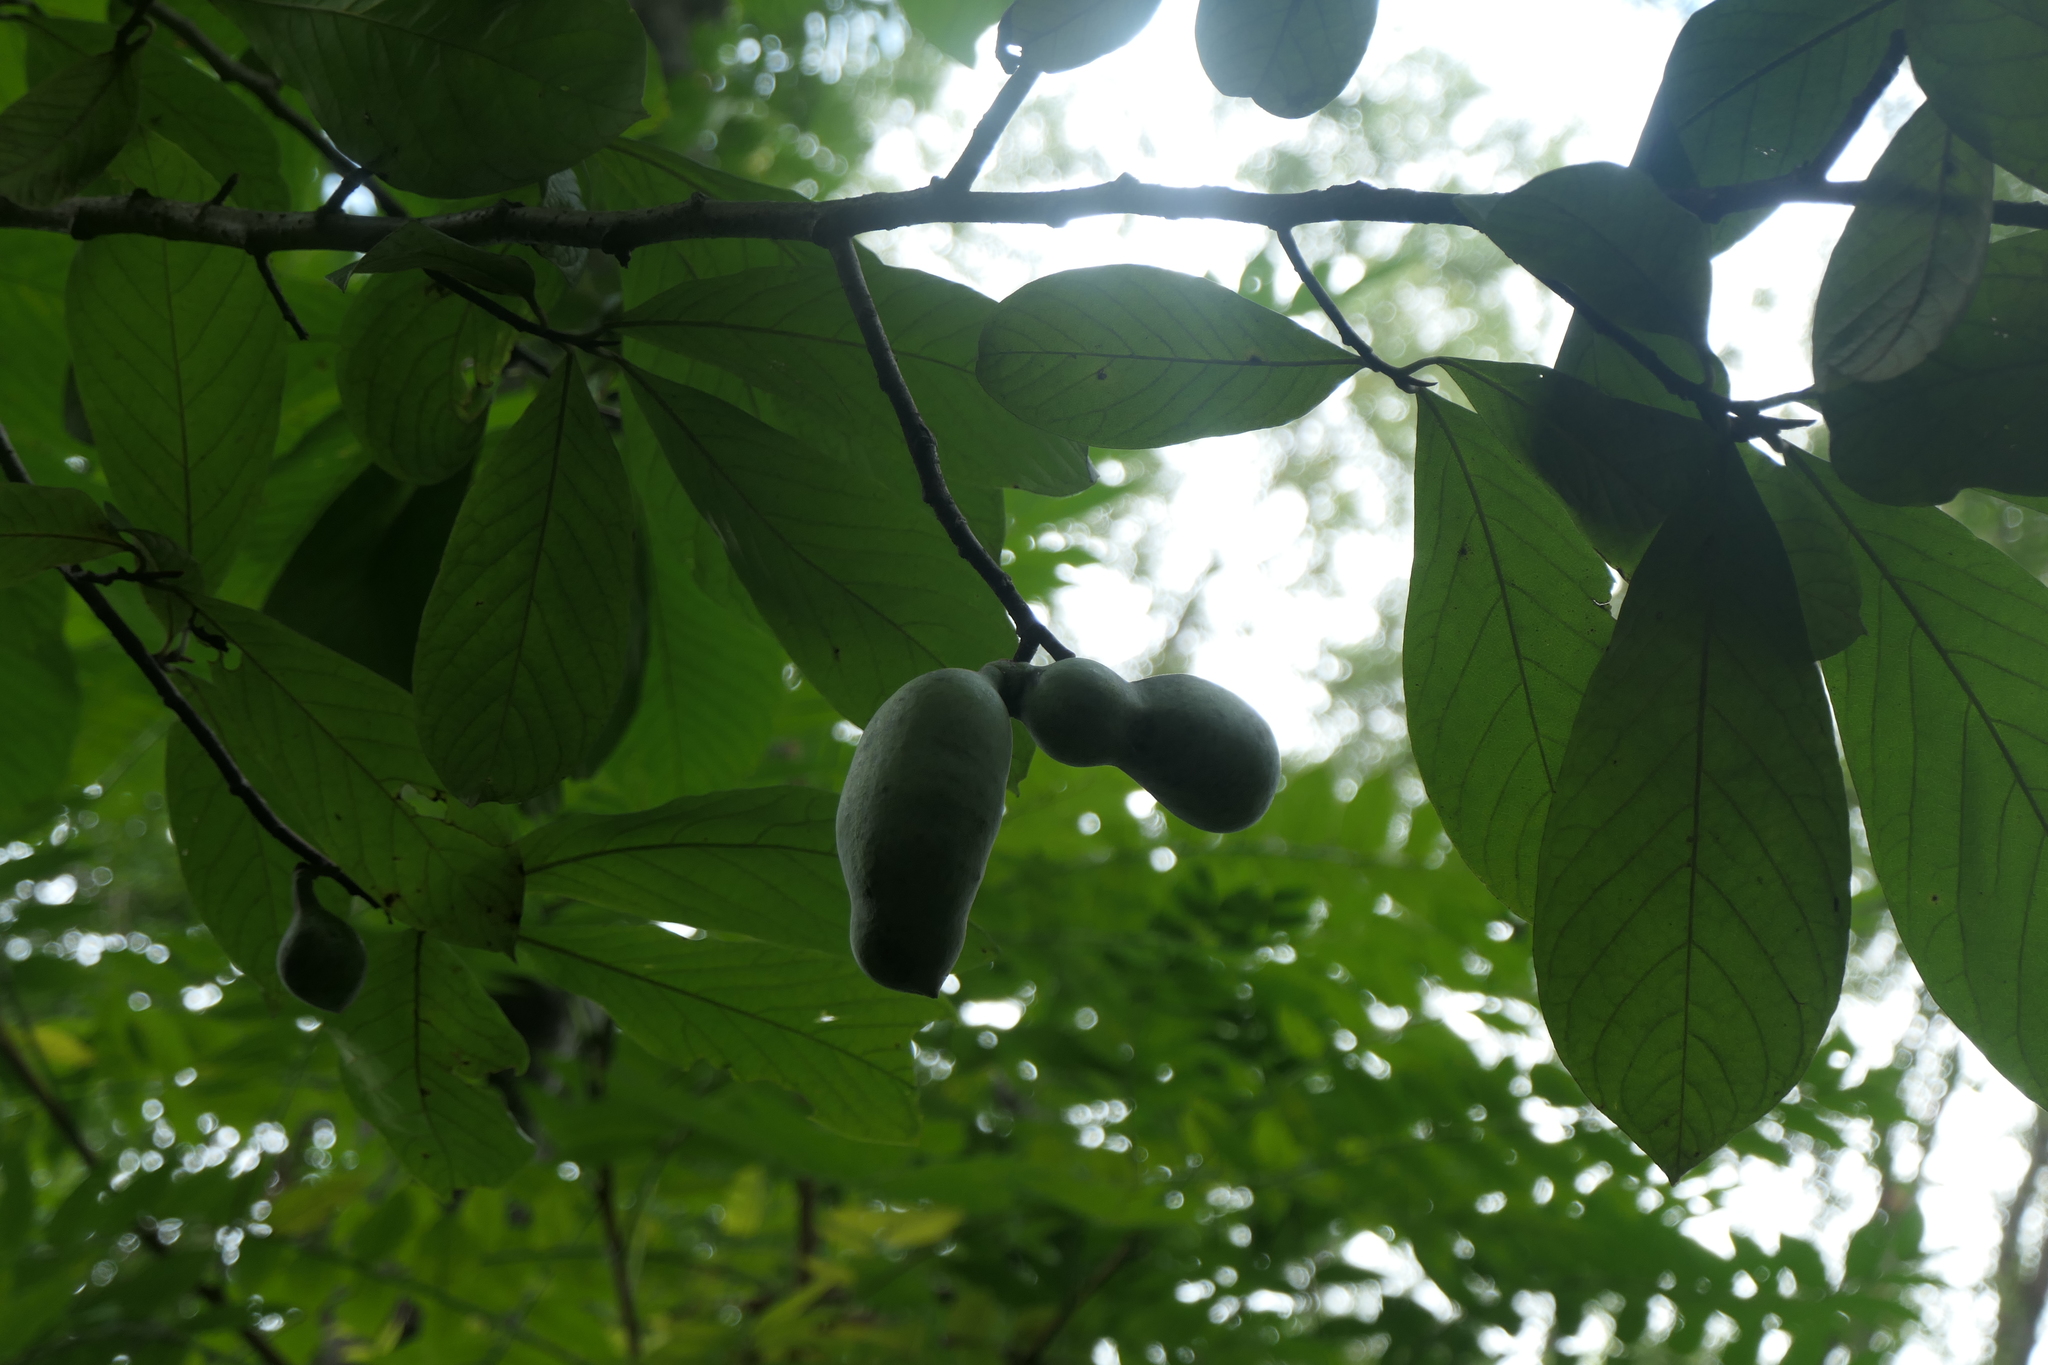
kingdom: Plantae
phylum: Tracheophyta
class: Magnoliopsida
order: Magnoliales
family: Annonaceae
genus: Asimina
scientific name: Asimina triloba
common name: Dog-banana
